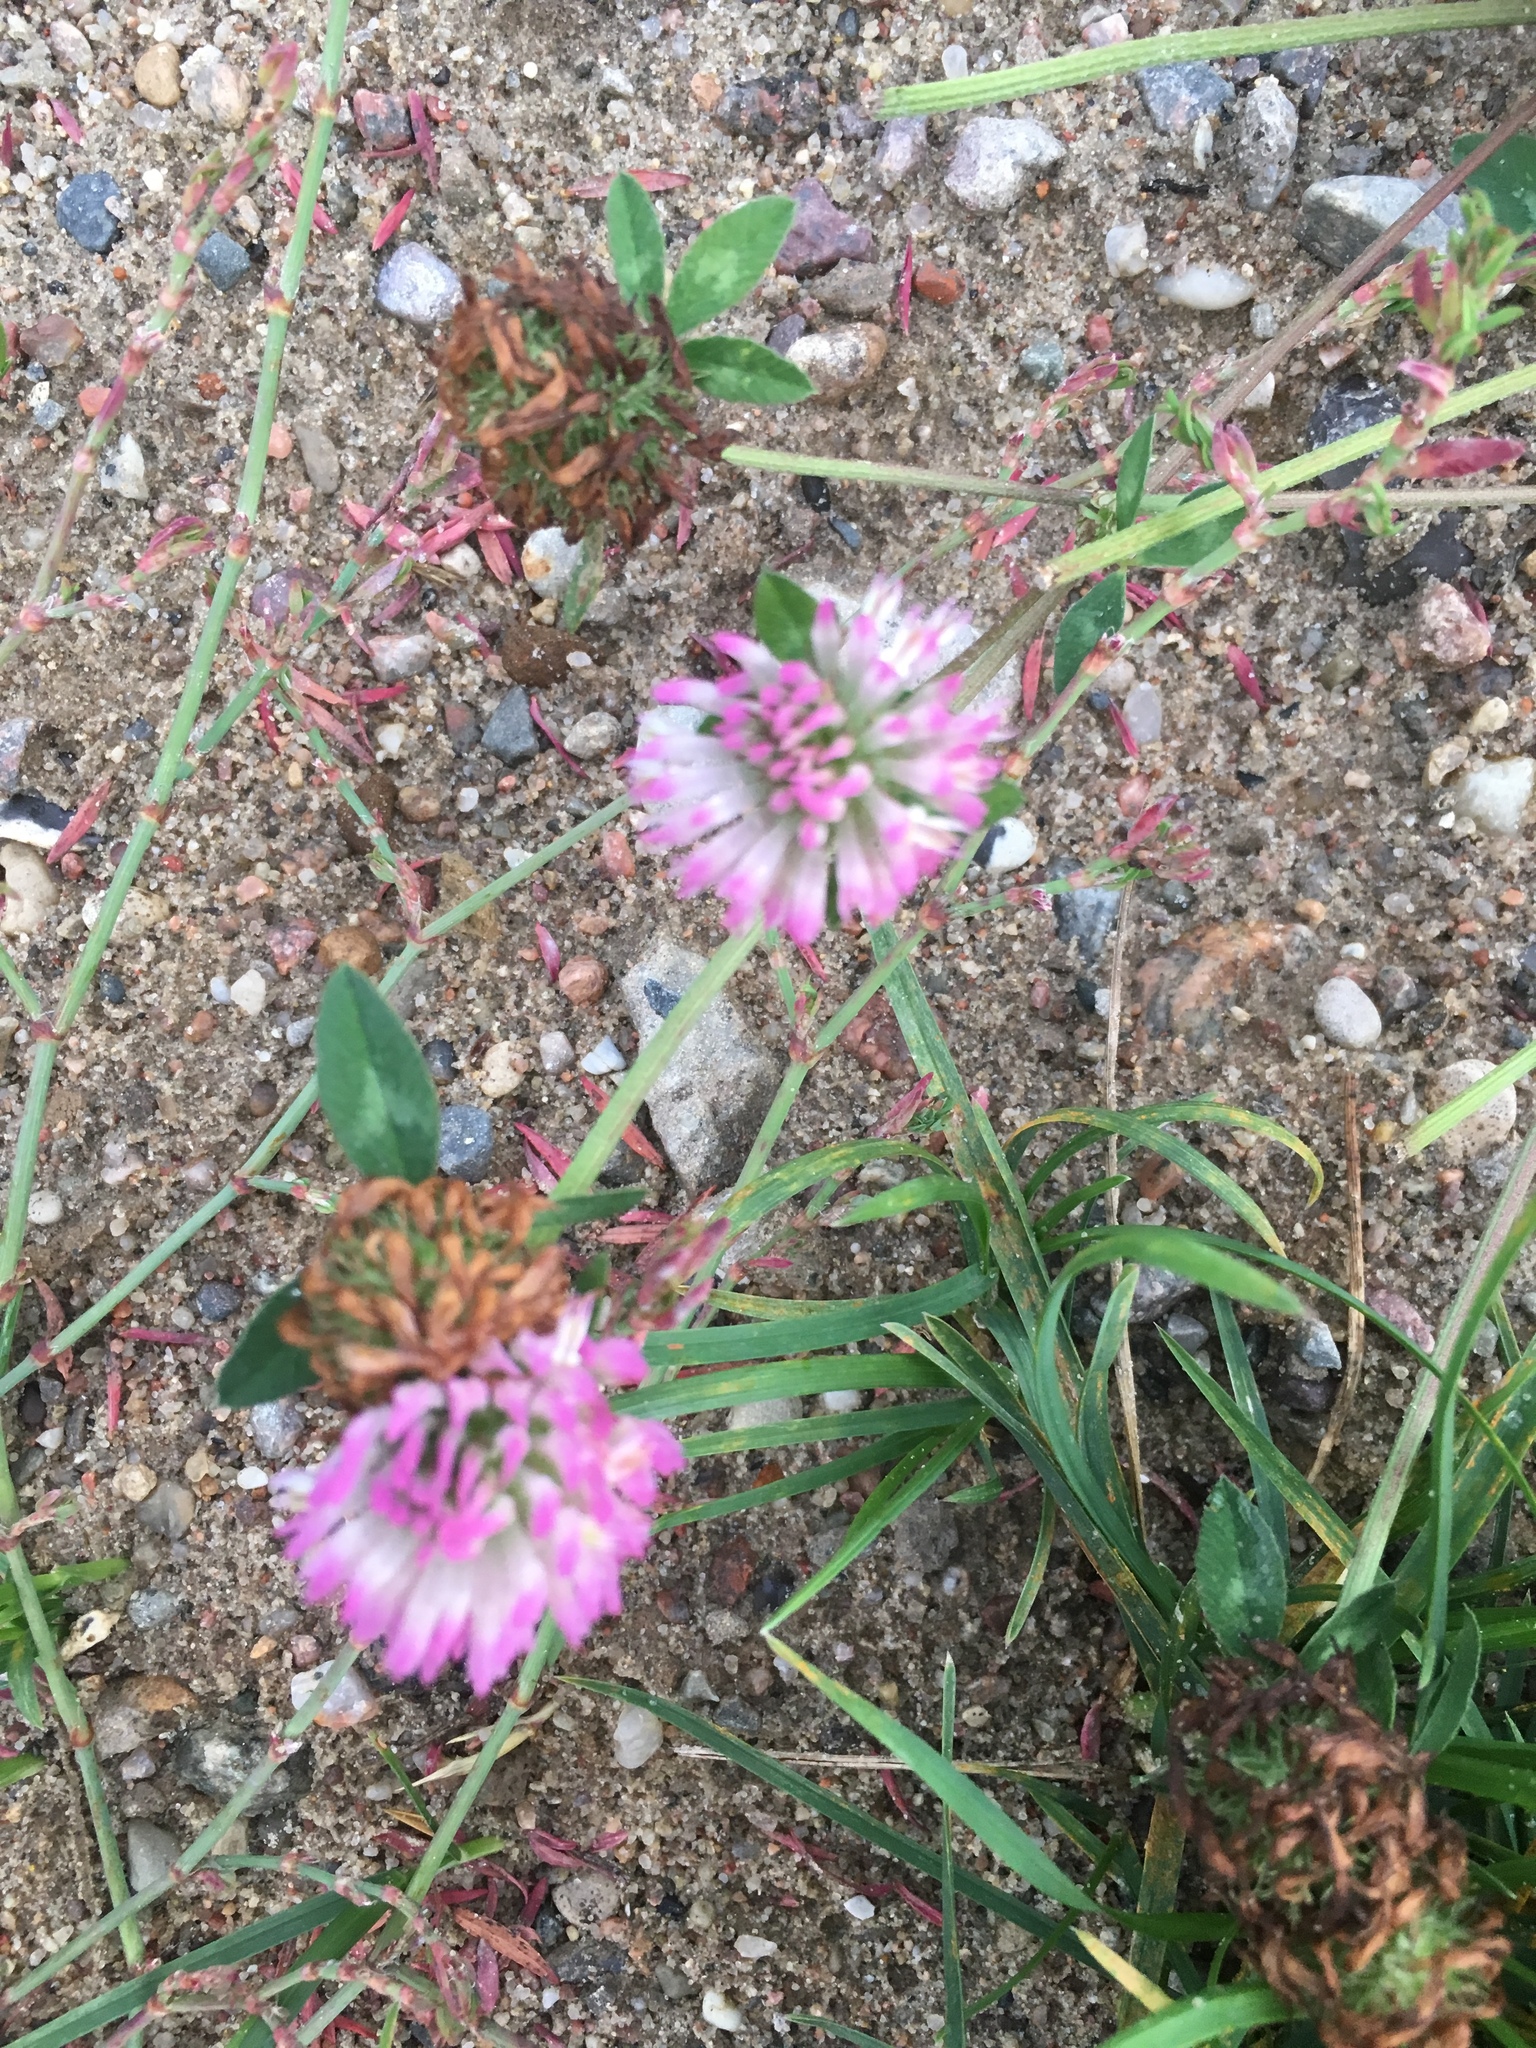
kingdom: Plantae
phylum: Tracheophyta
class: Magnoliopsida
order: Fabales
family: Fabaceae
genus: Trifolium
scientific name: Trifolium pratense
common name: Red clover
